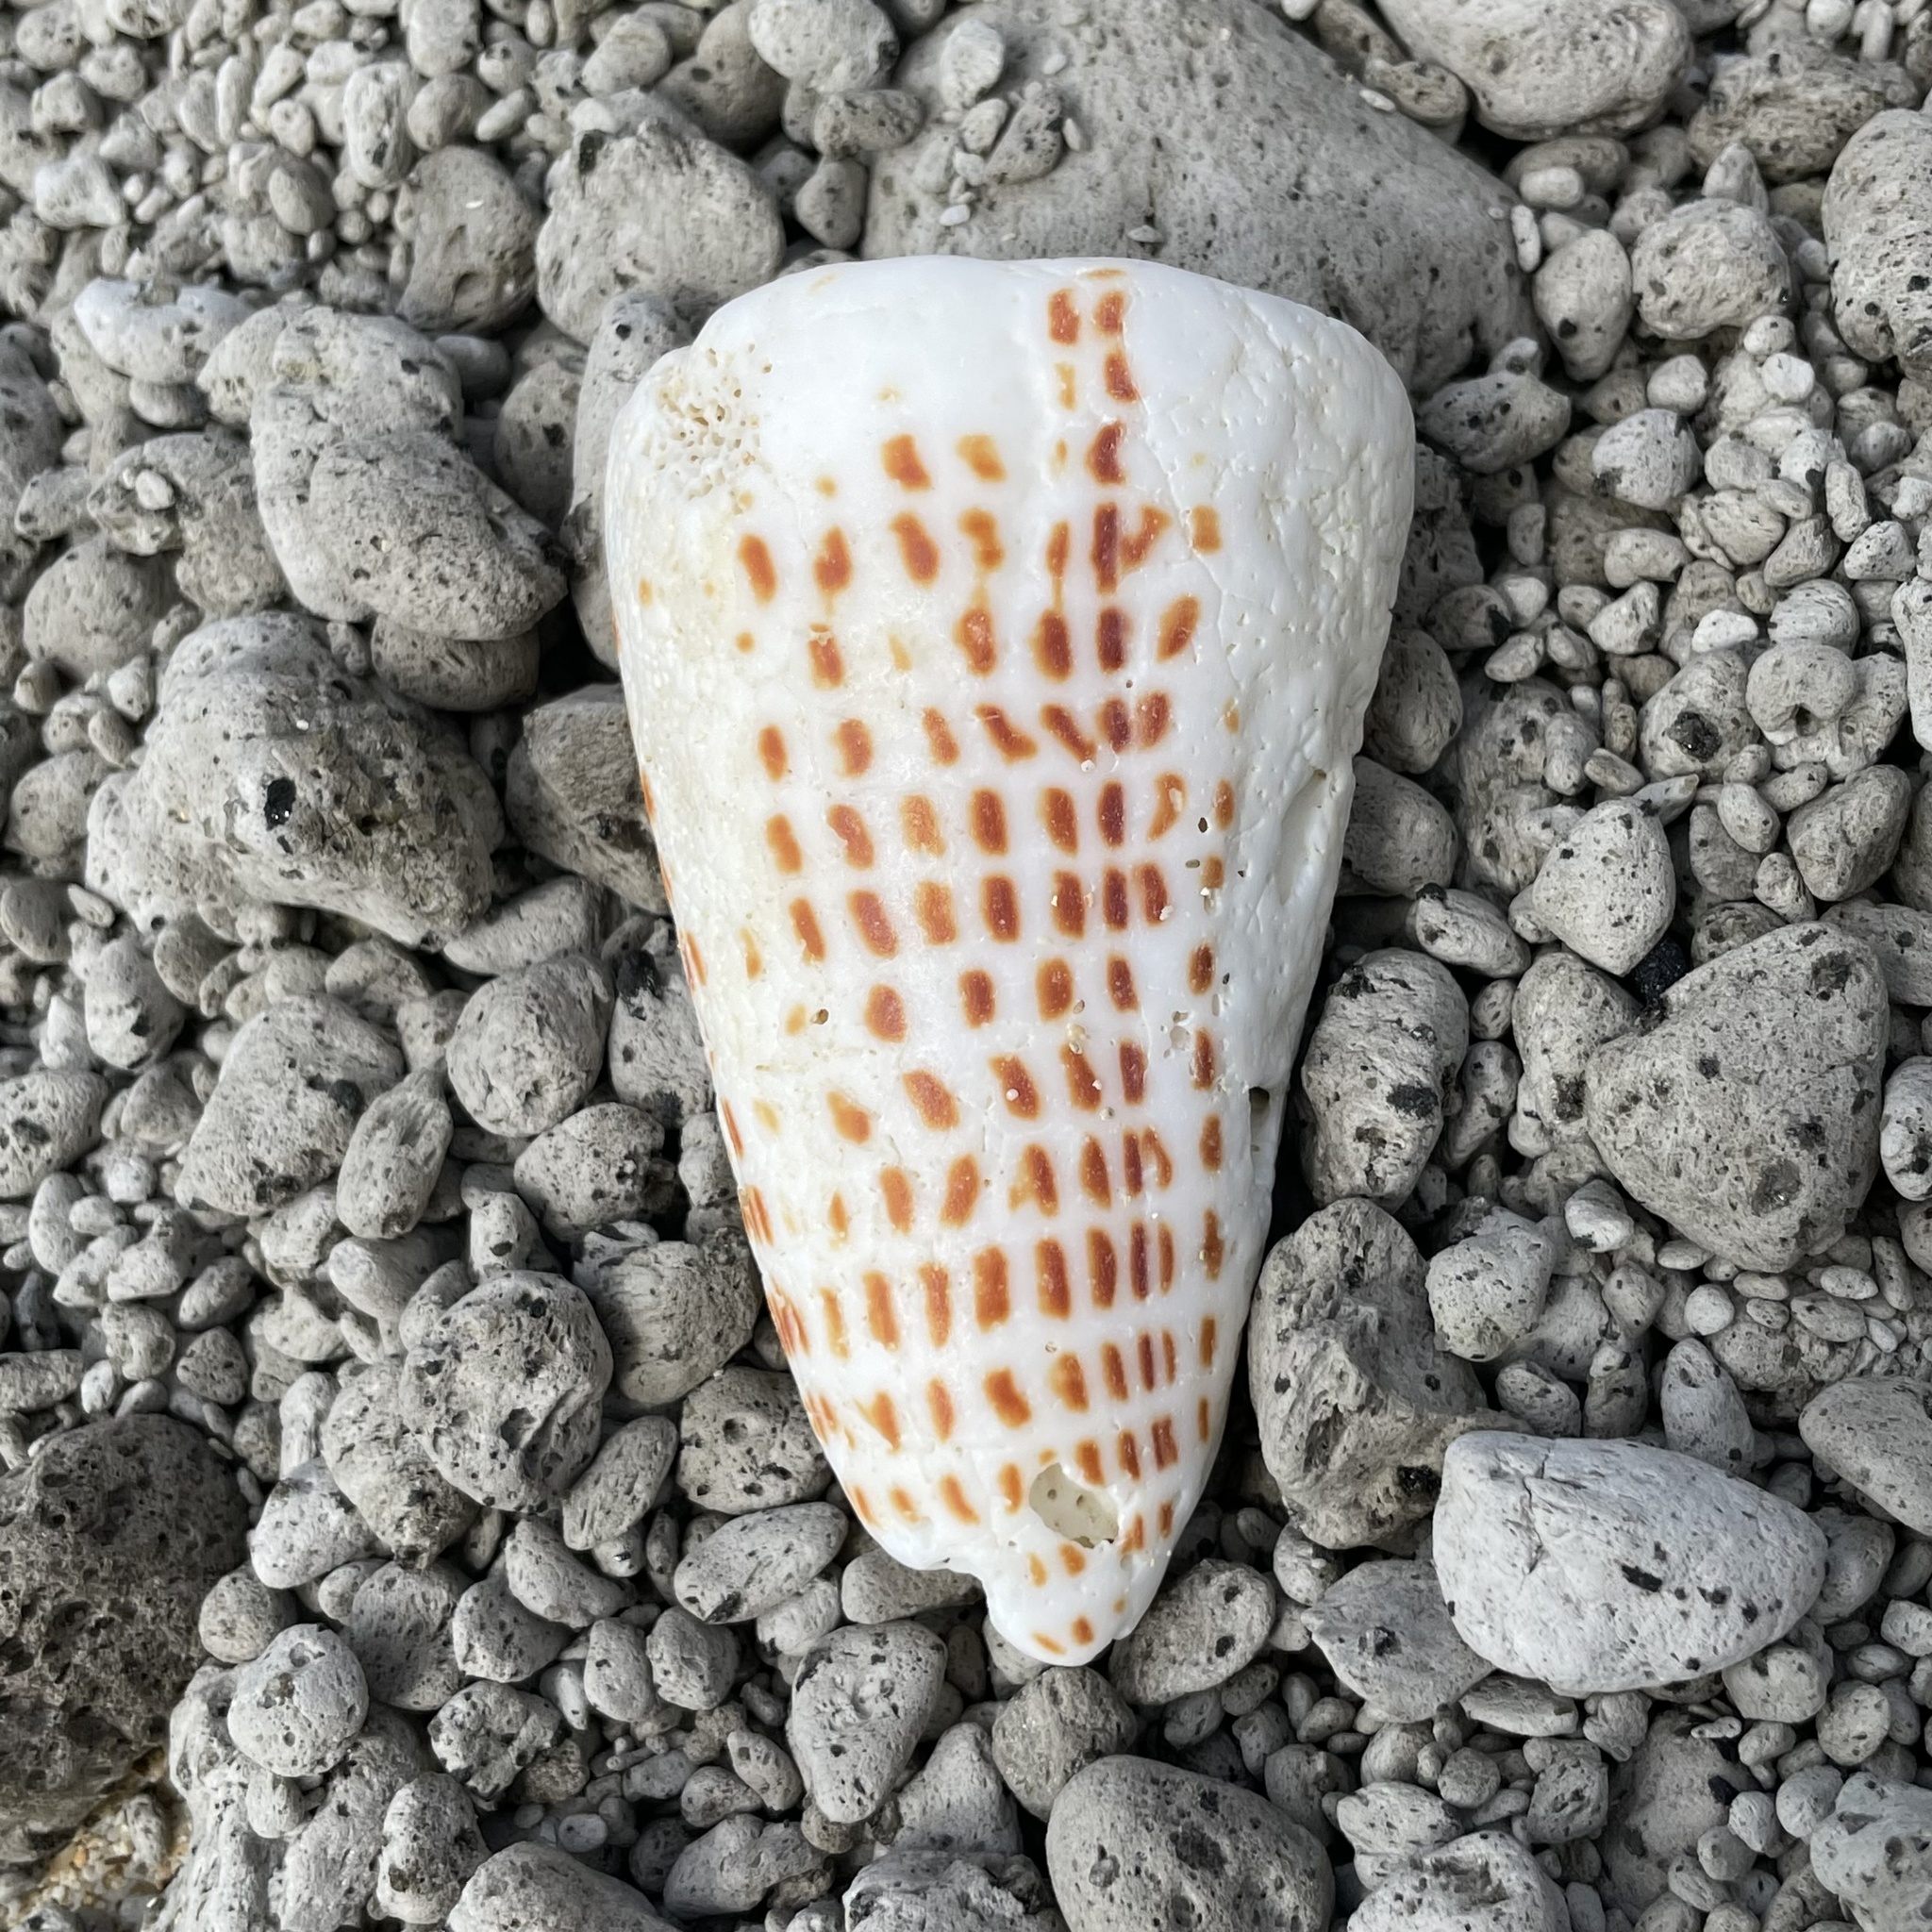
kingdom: Animalia
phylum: Mollusca
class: Gastropoda
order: Neogastropoda
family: Conidae
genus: Conus
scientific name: Conus litteratus
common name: Lettered cone
